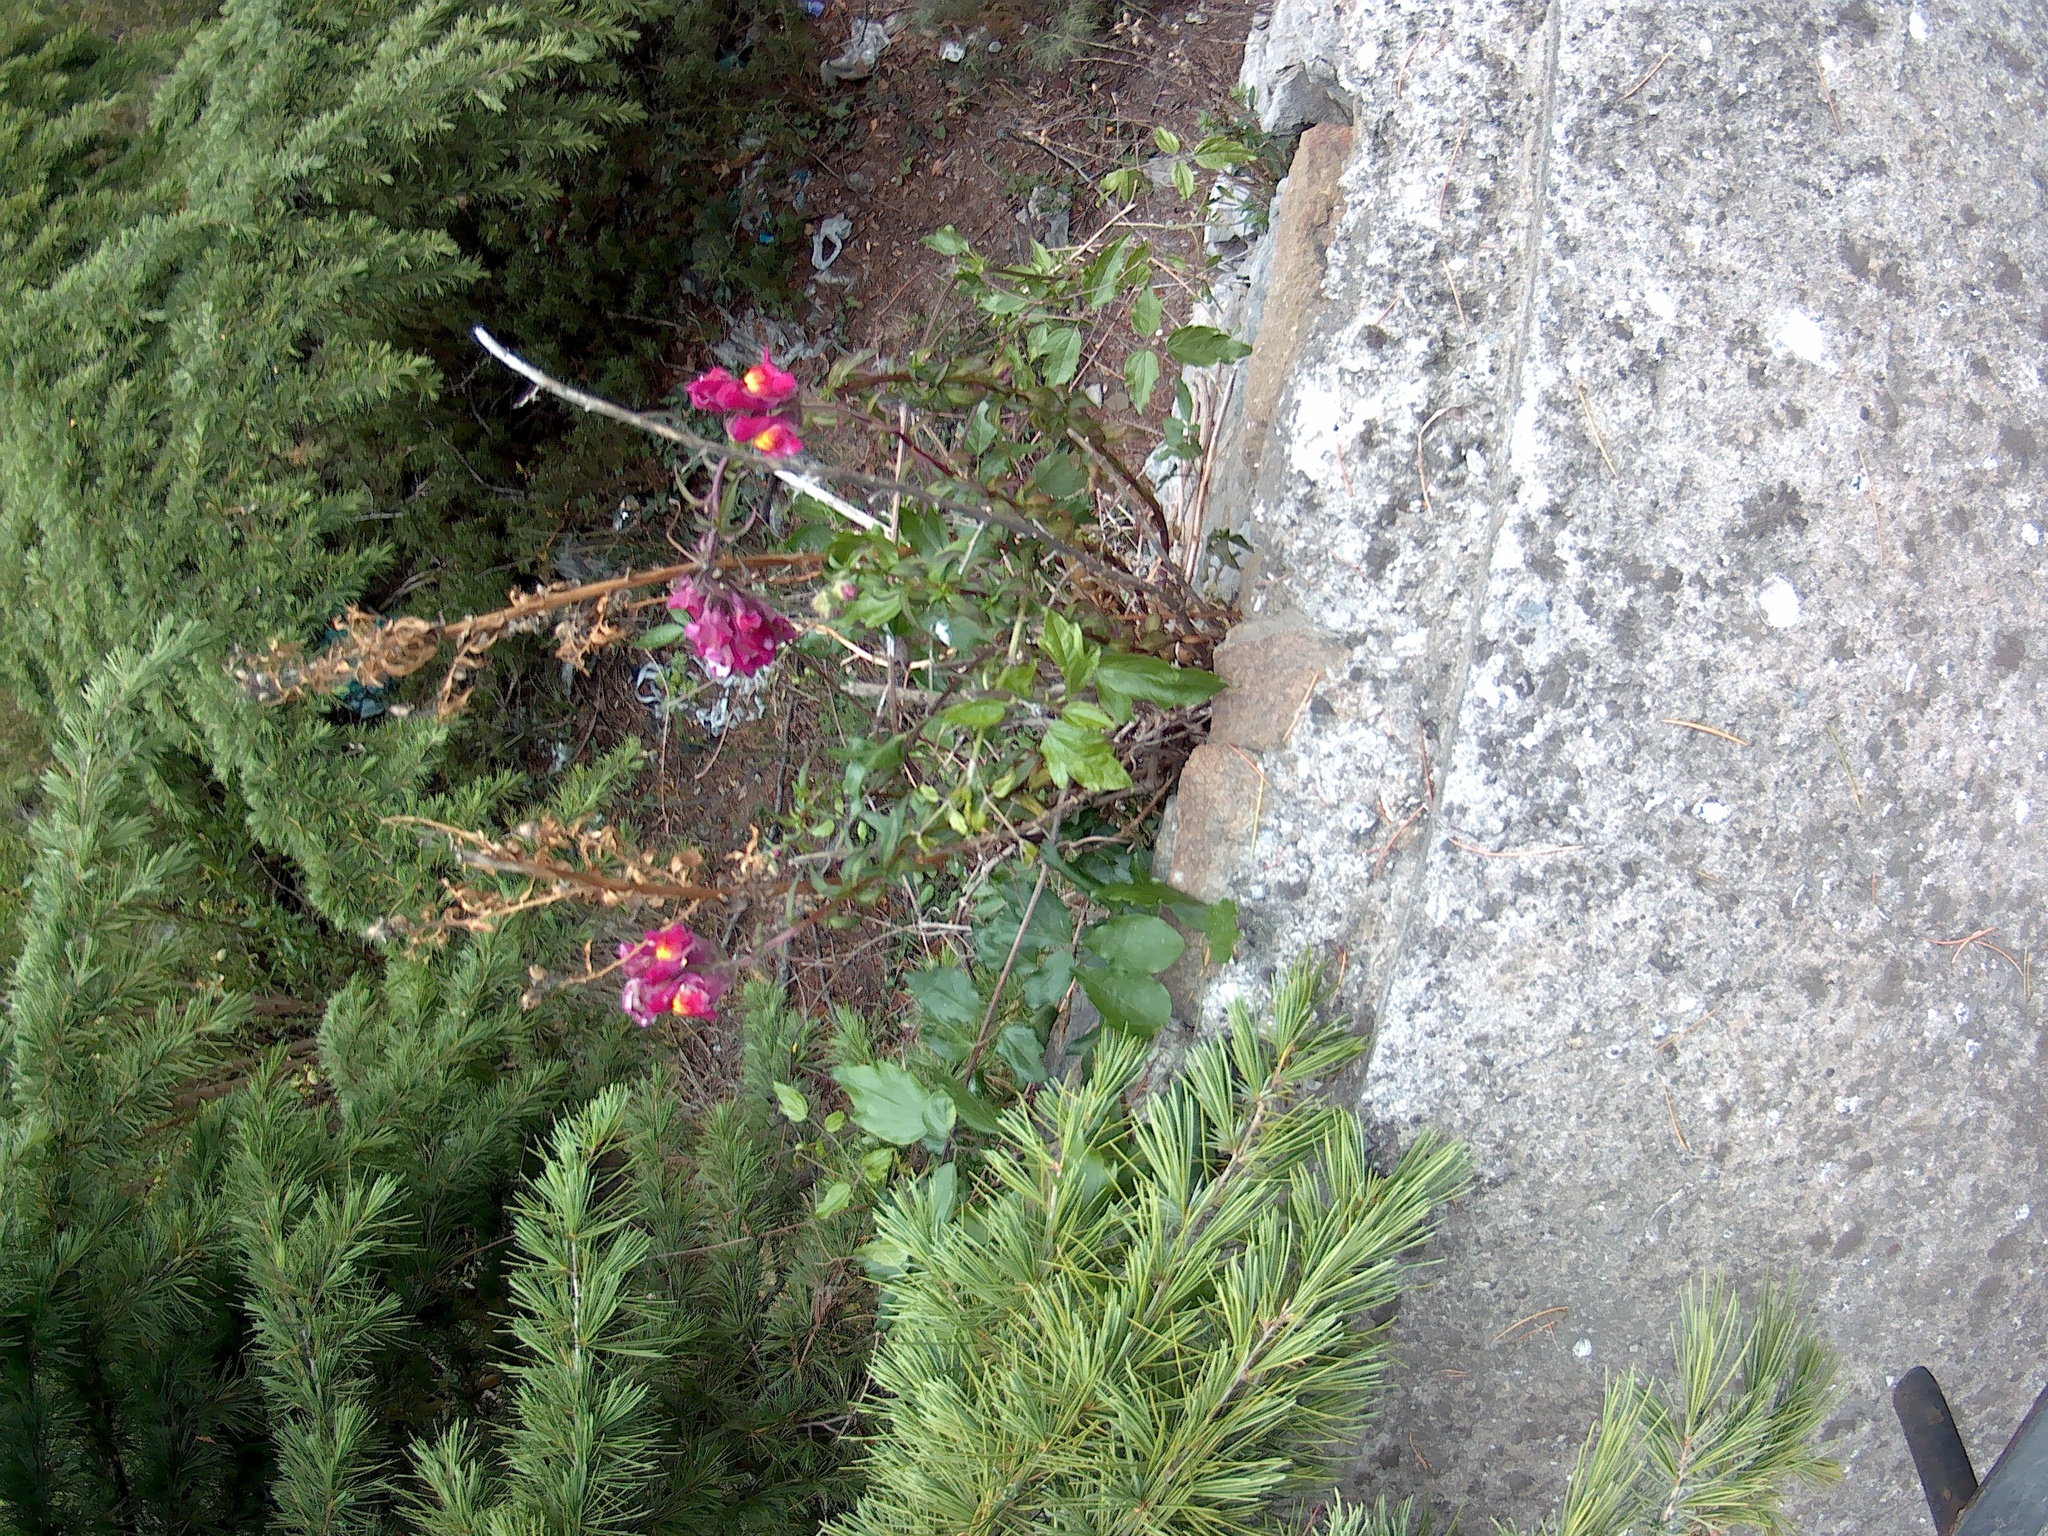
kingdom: Plantae
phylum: Tracheophyta
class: Magnoliopsida
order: Lamiales
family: Plantaginaceae
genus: Antirrhinum
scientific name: Antirrhinum majus
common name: Snapdragon
